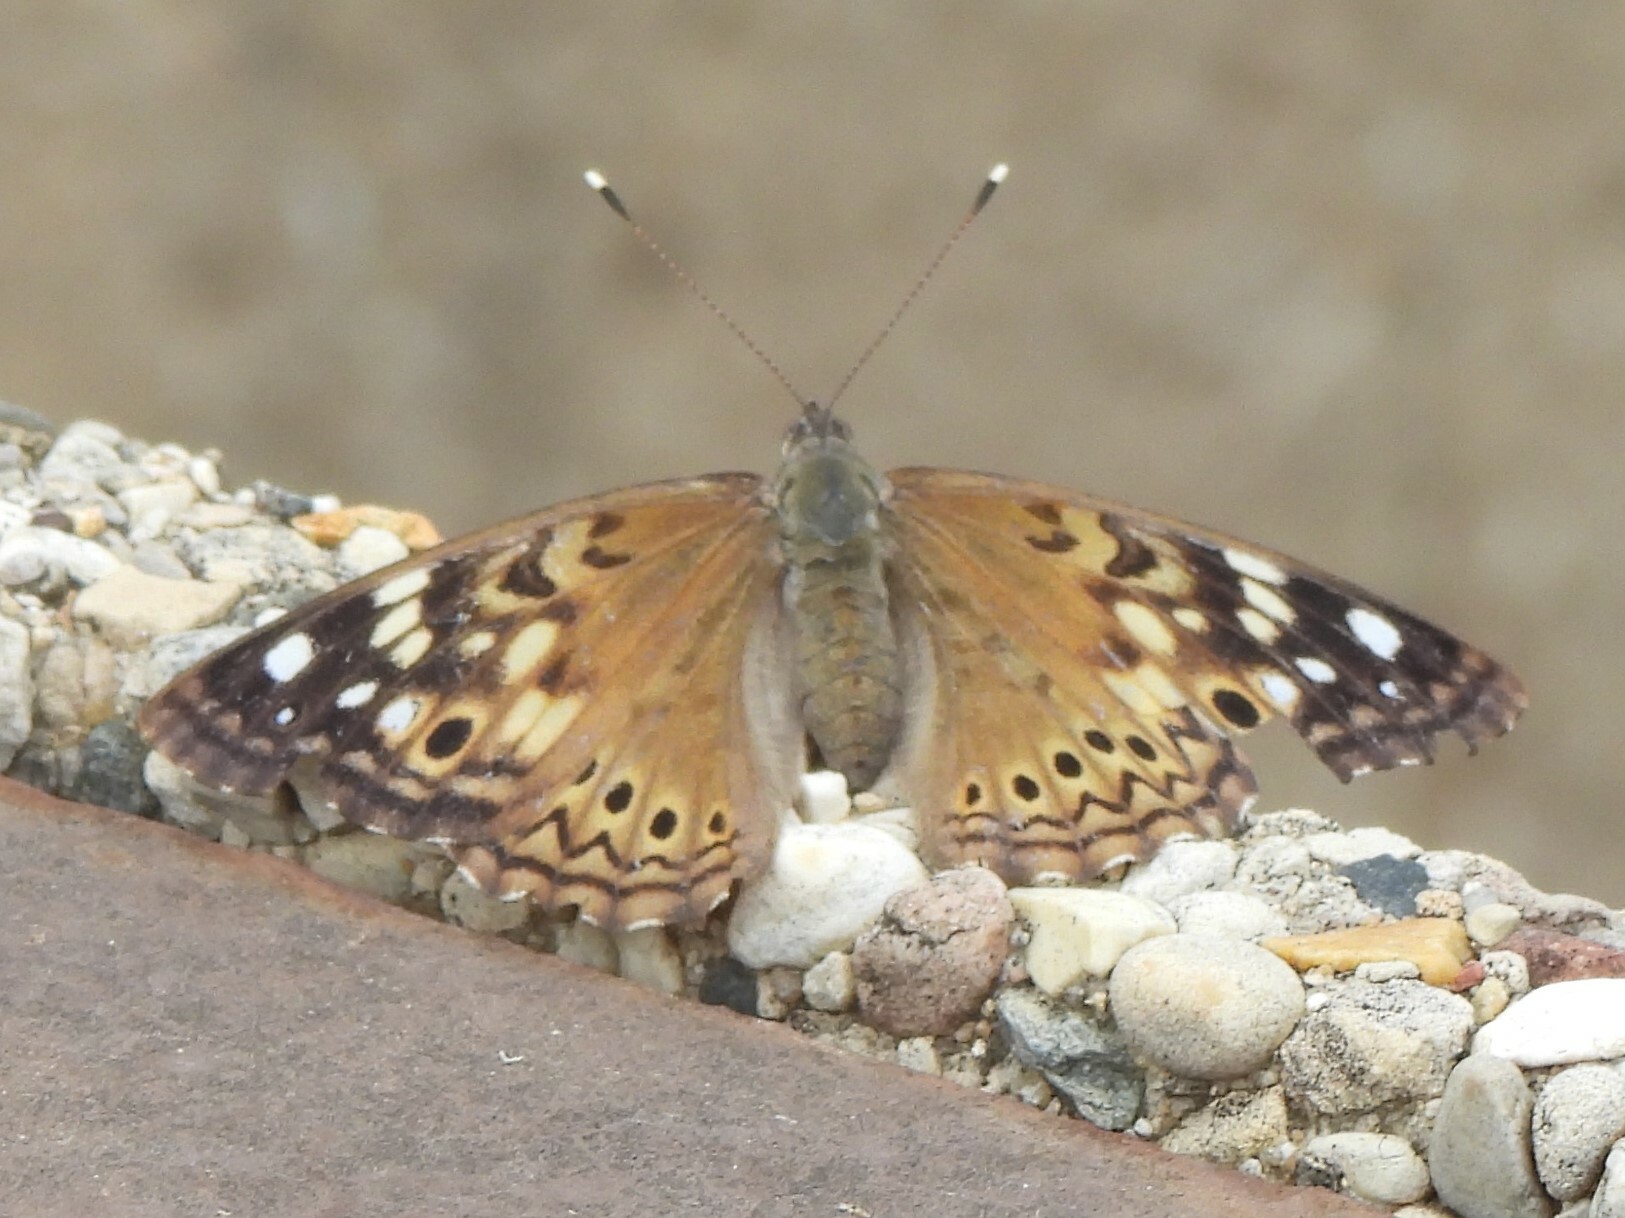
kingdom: Animalia
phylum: Arthropoda
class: Insecta
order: Lepidoptera
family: Nymphalidae
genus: Asterocampa
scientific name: Asterocampa celtis
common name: Hackberry emperor
